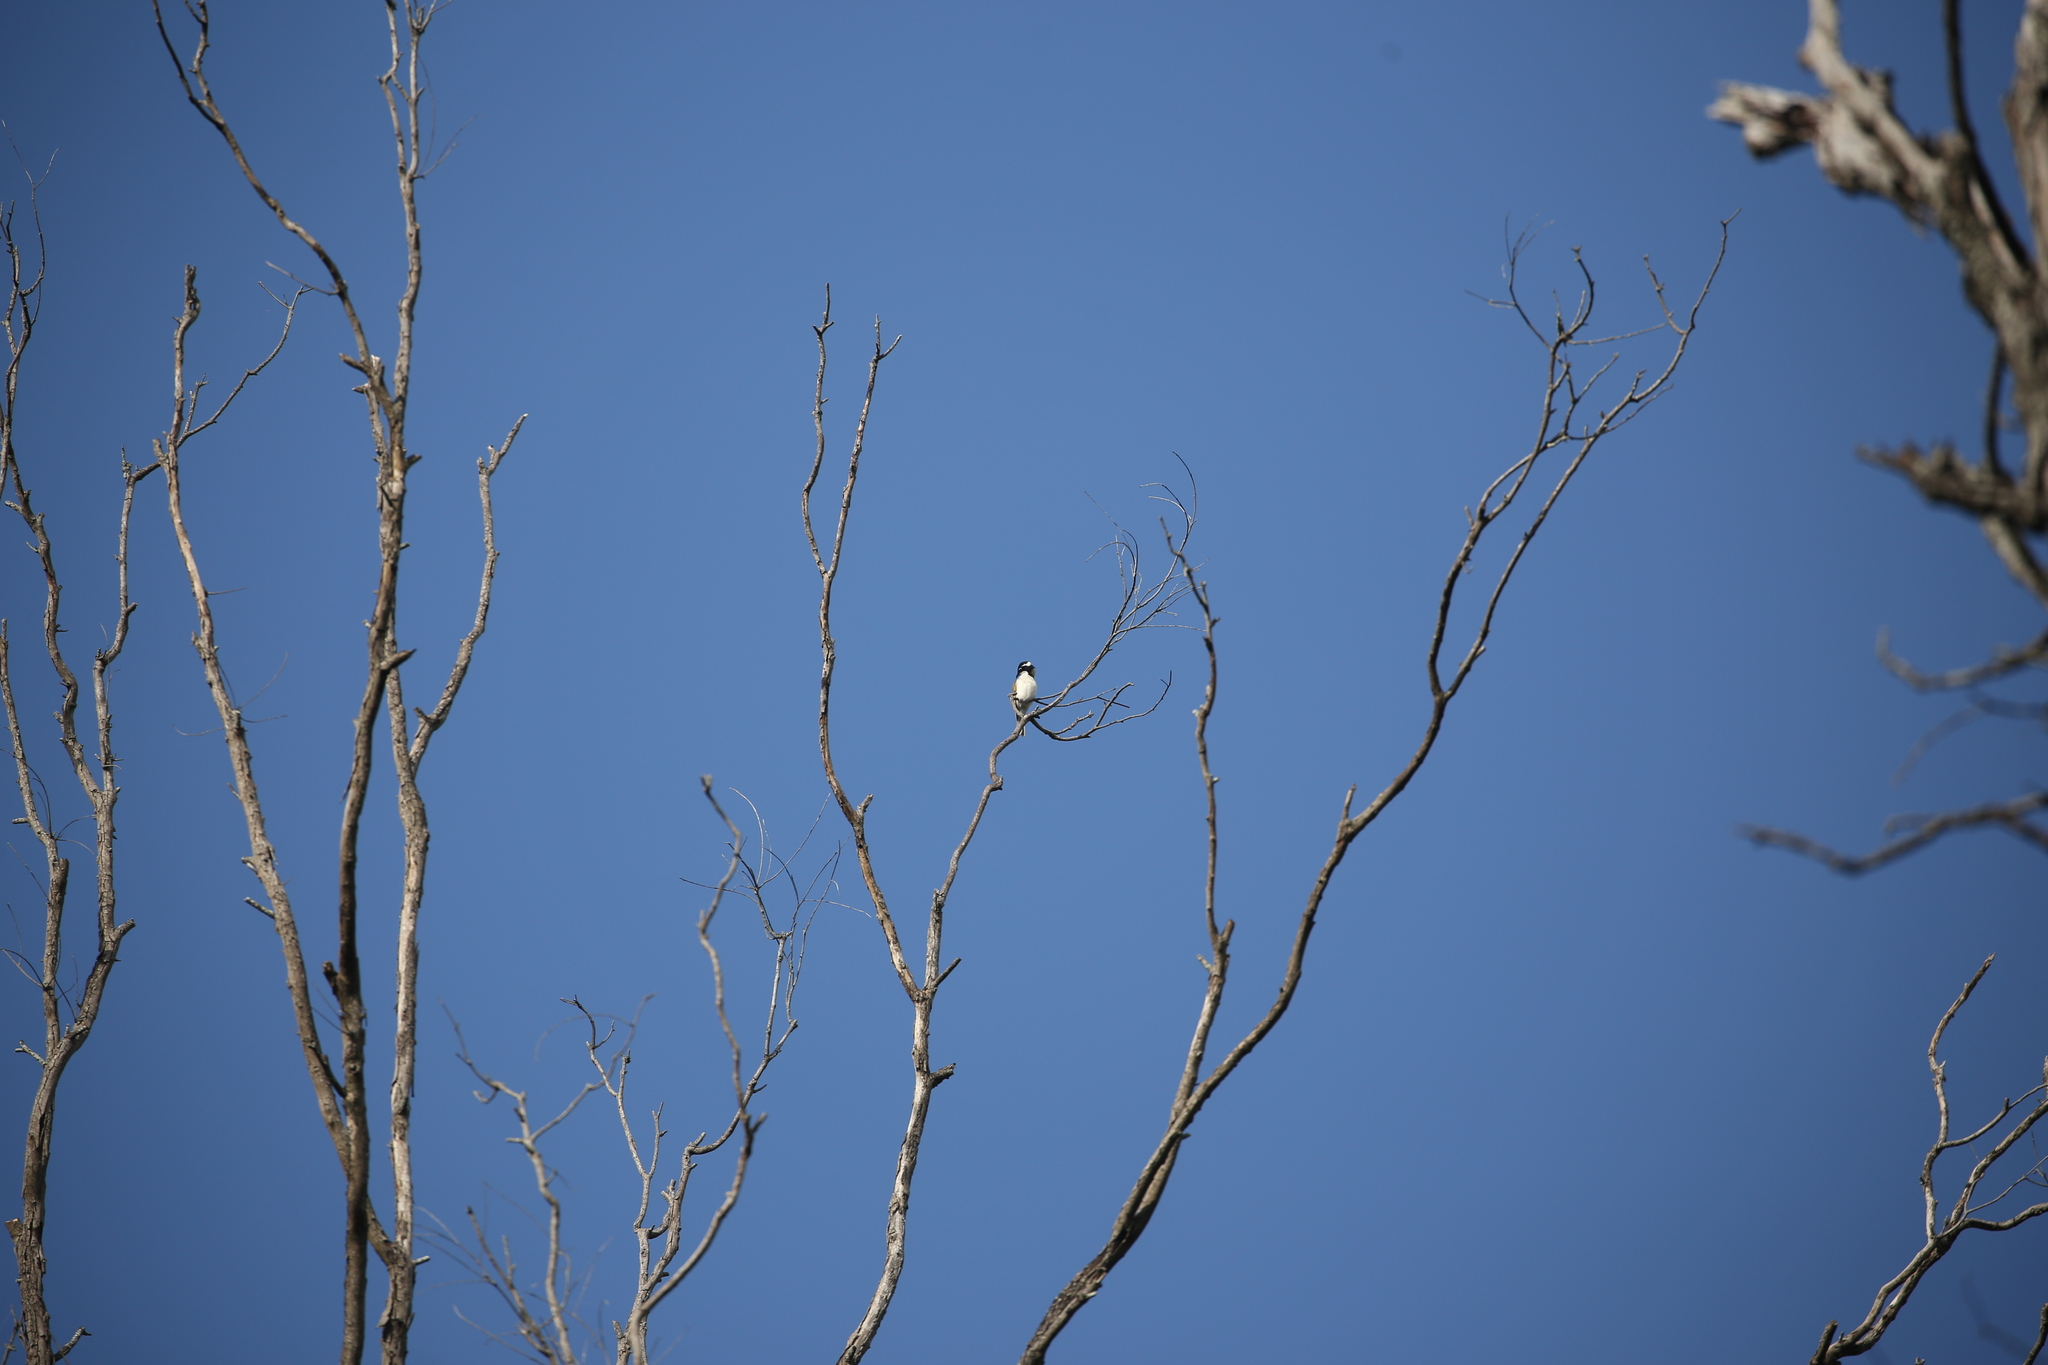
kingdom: Animalia
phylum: Chordata
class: Aves
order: Passeriformes
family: Meliphagidae
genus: Melithreptus
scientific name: Melithreptus albogularis
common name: White-throated honeyeater
